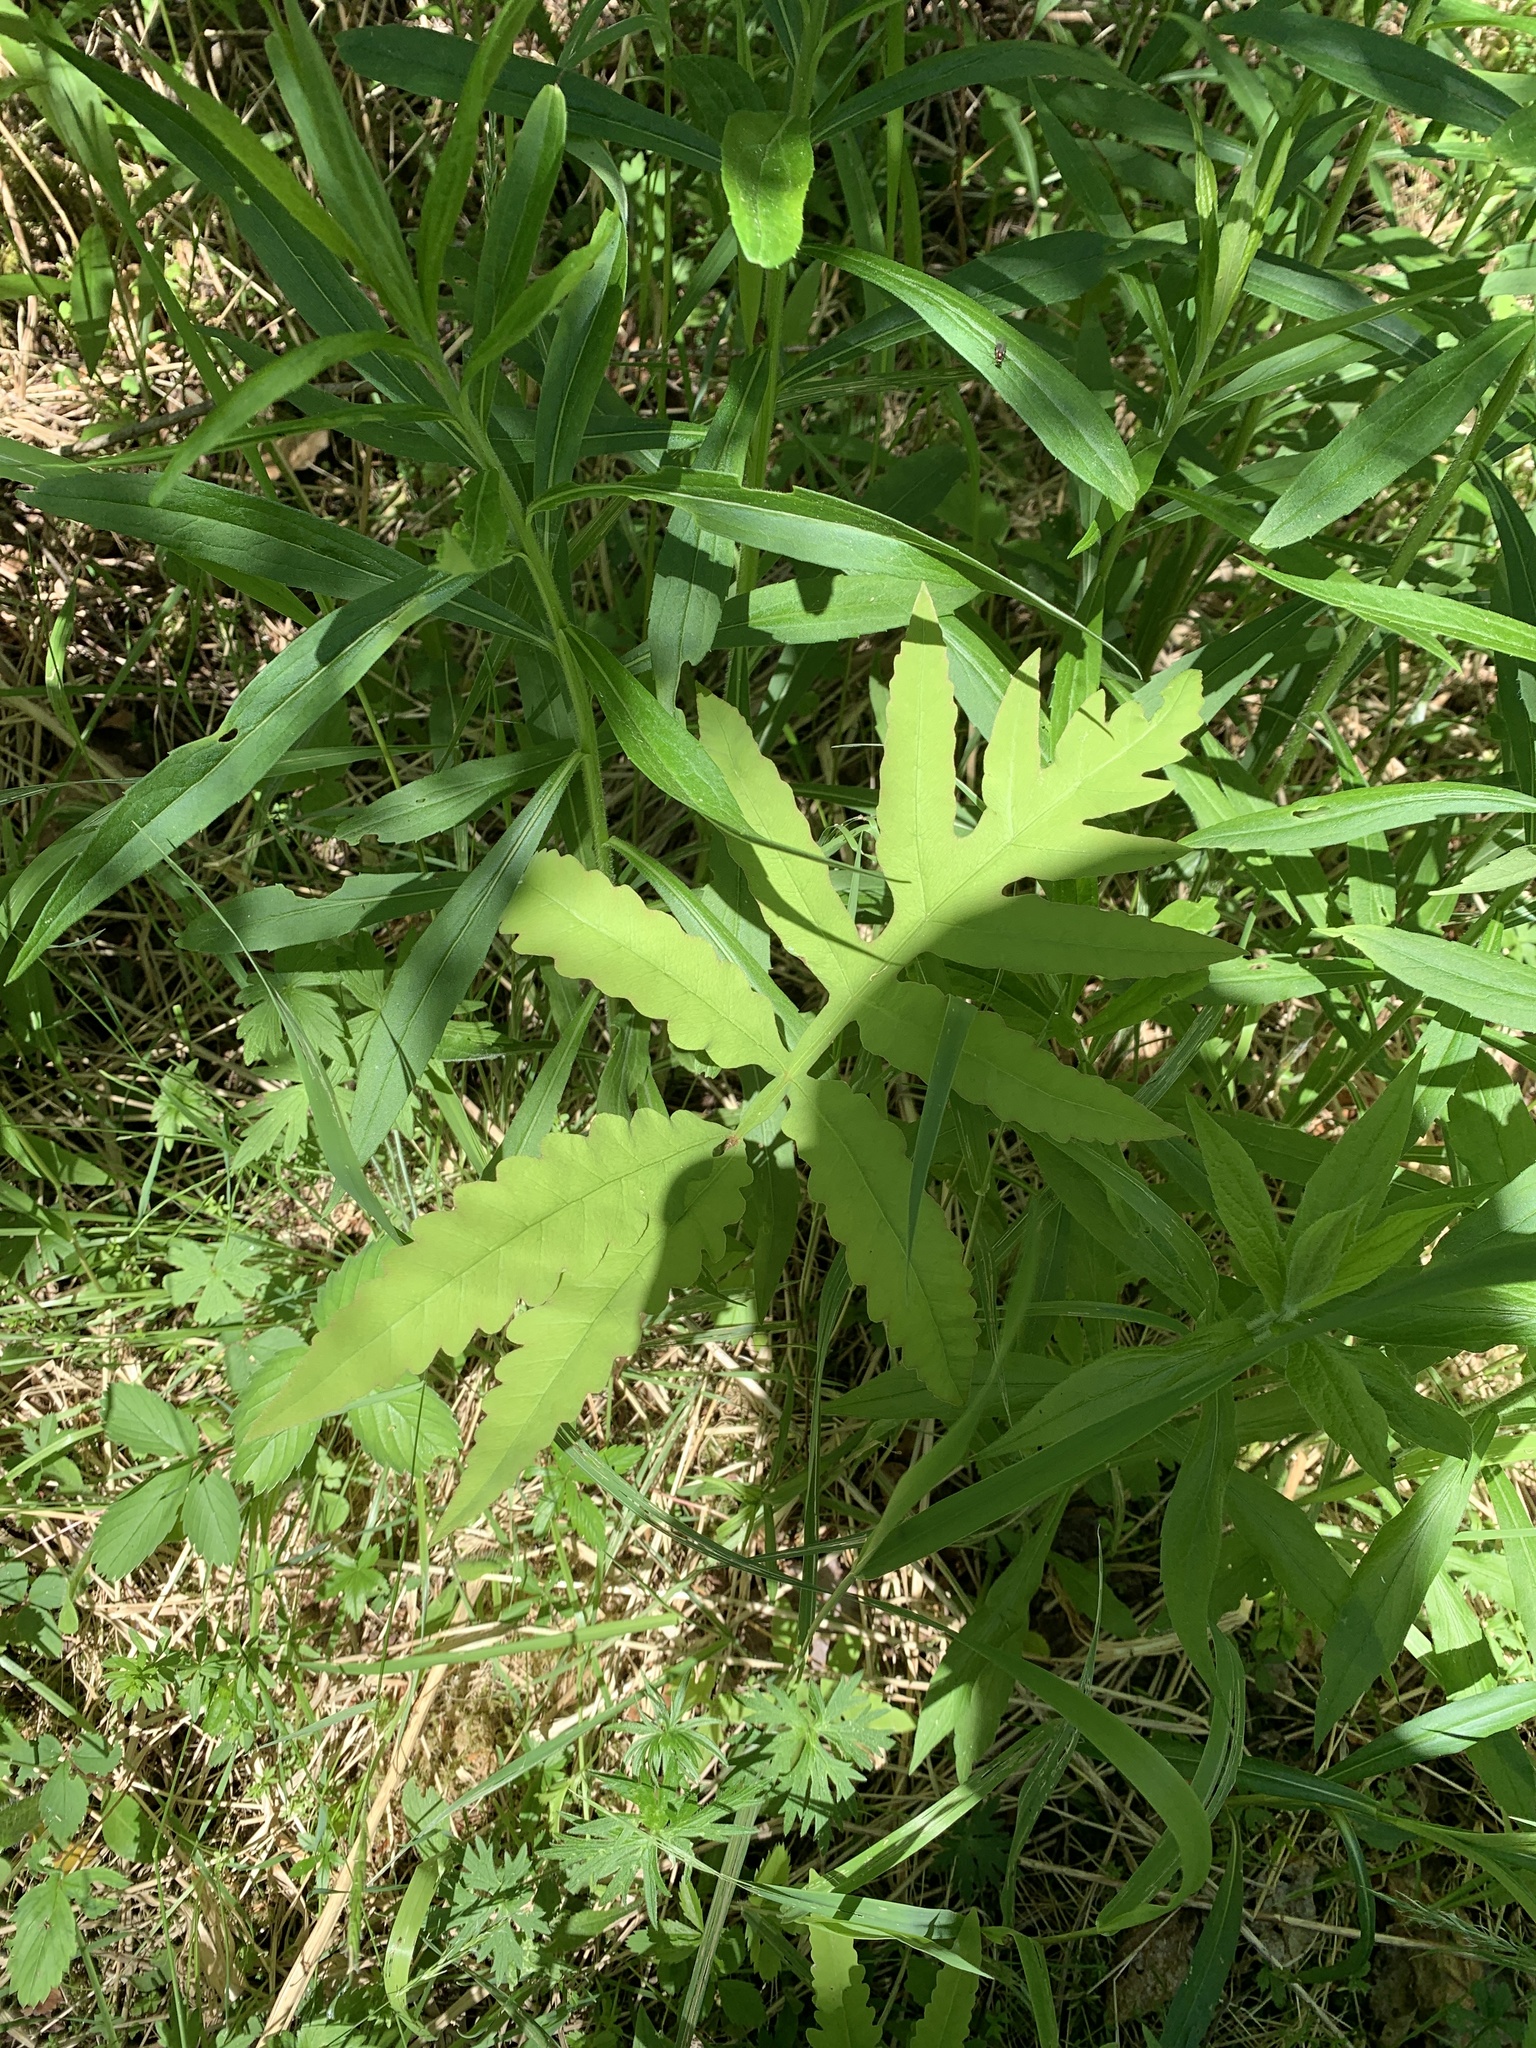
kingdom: Plantae
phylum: Tracheophyta
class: Polypodiopsida
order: Polypodiales
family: Onocleaceae
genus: Onoclea
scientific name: Onoclea sensibilis
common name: Sensitive fern
